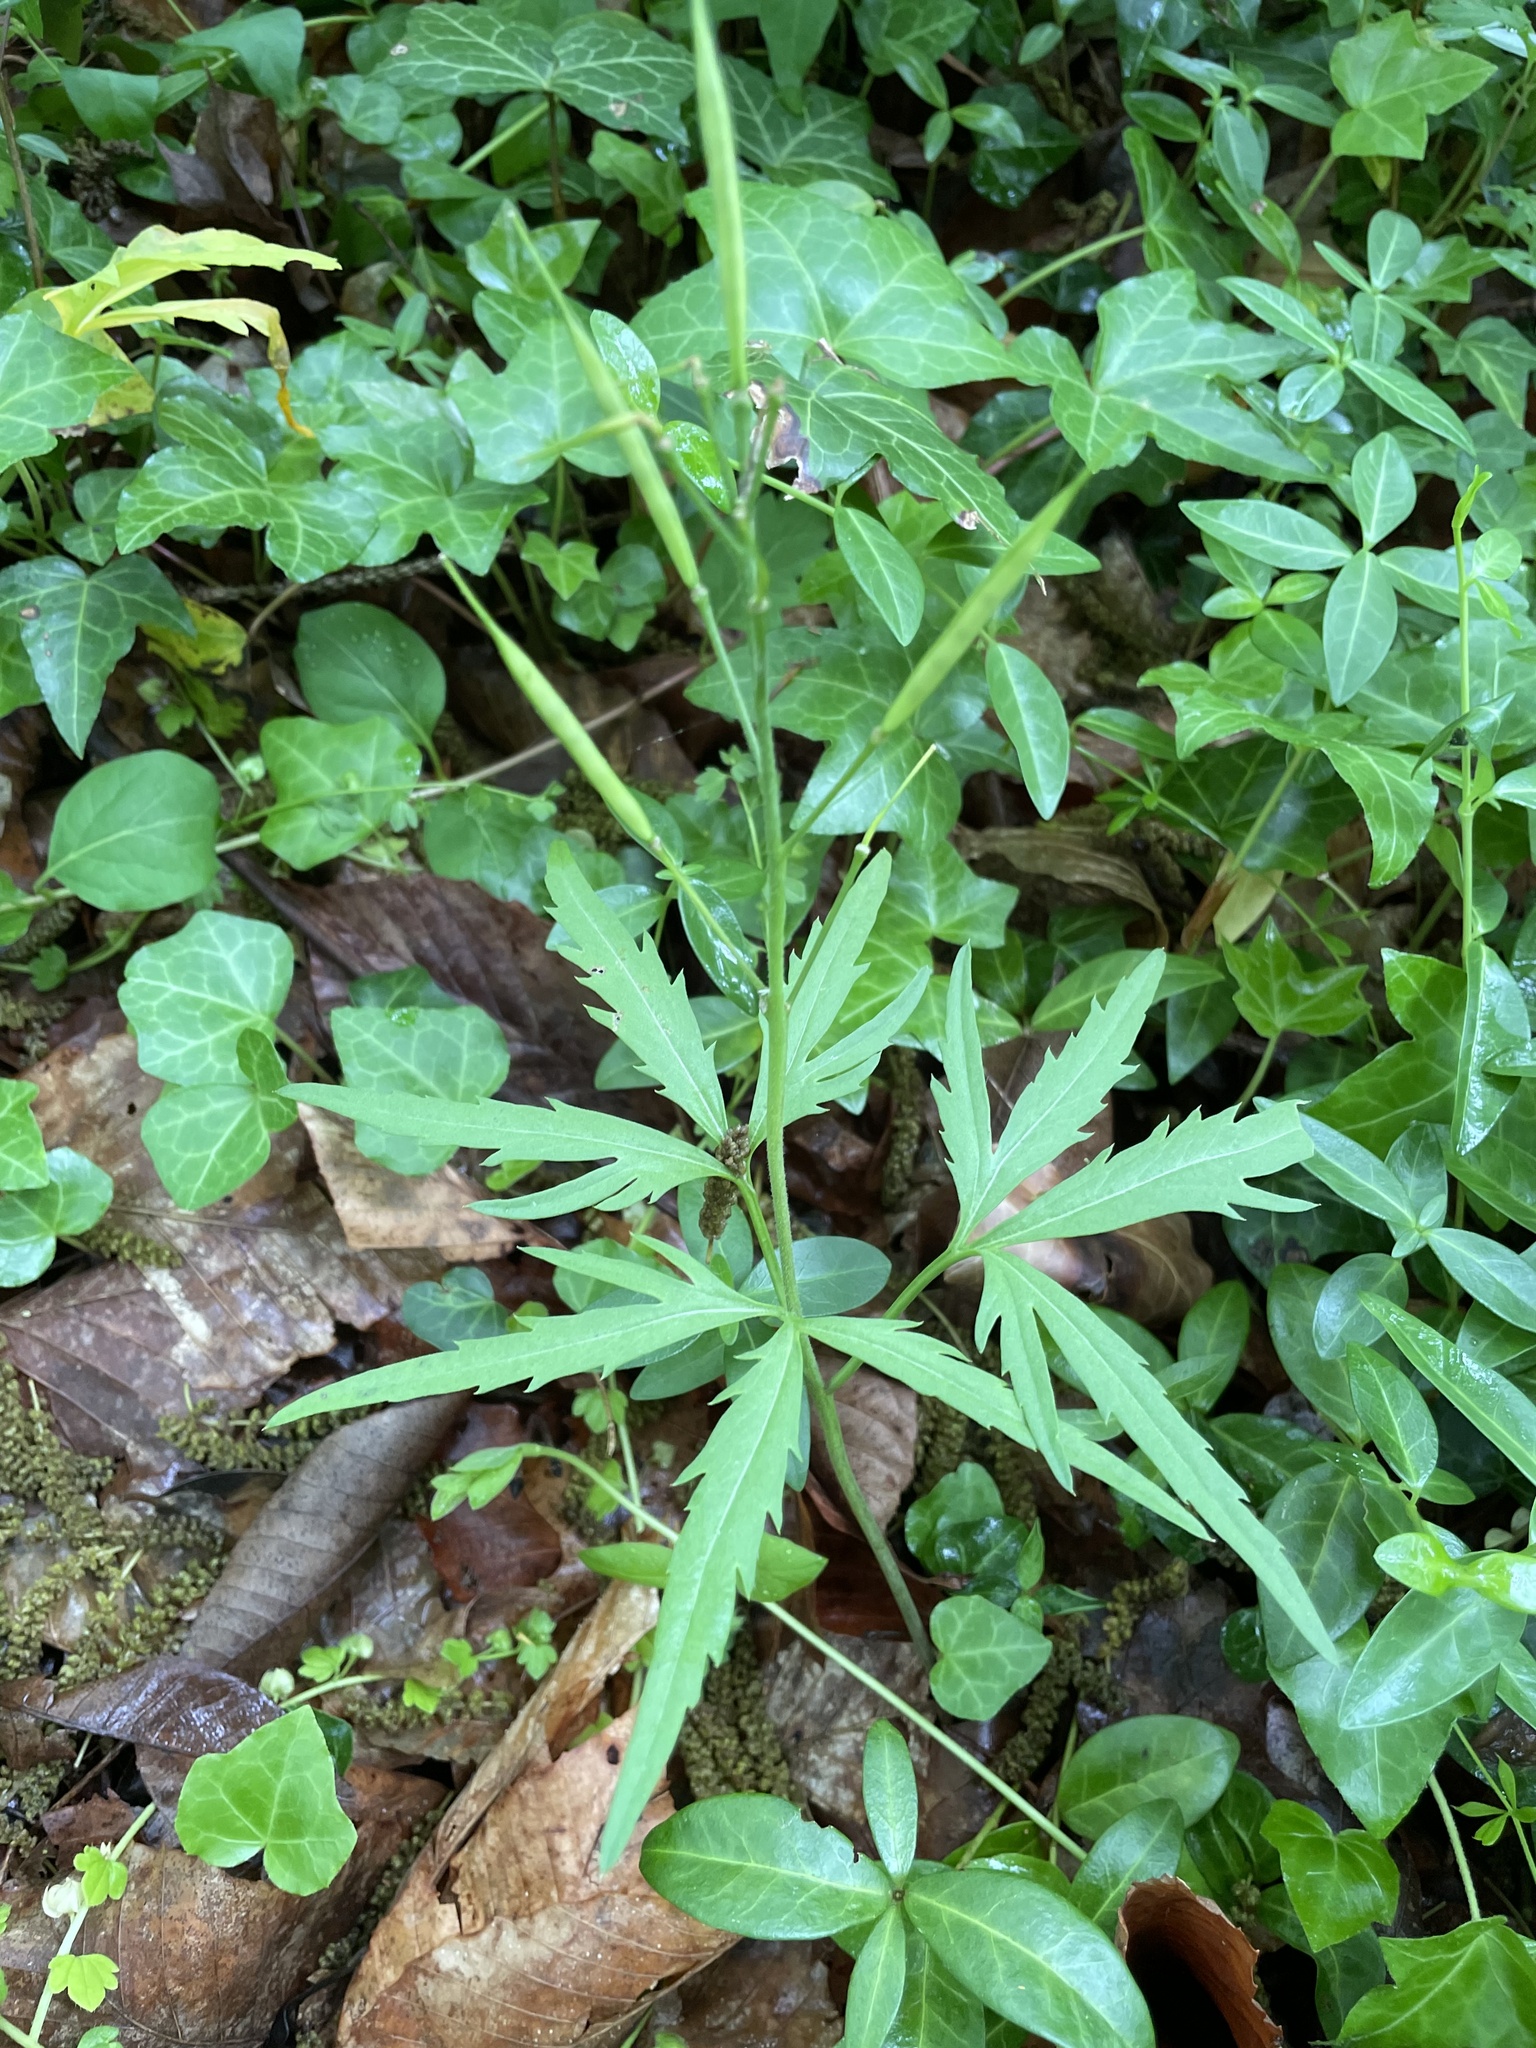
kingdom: Plantae
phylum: Tracheophyta
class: Magnoliopsida
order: Brassicales
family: Brassicaceae
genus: Cardamine
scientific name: Cardamine concatenata
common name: Cut-leaf toothcup
